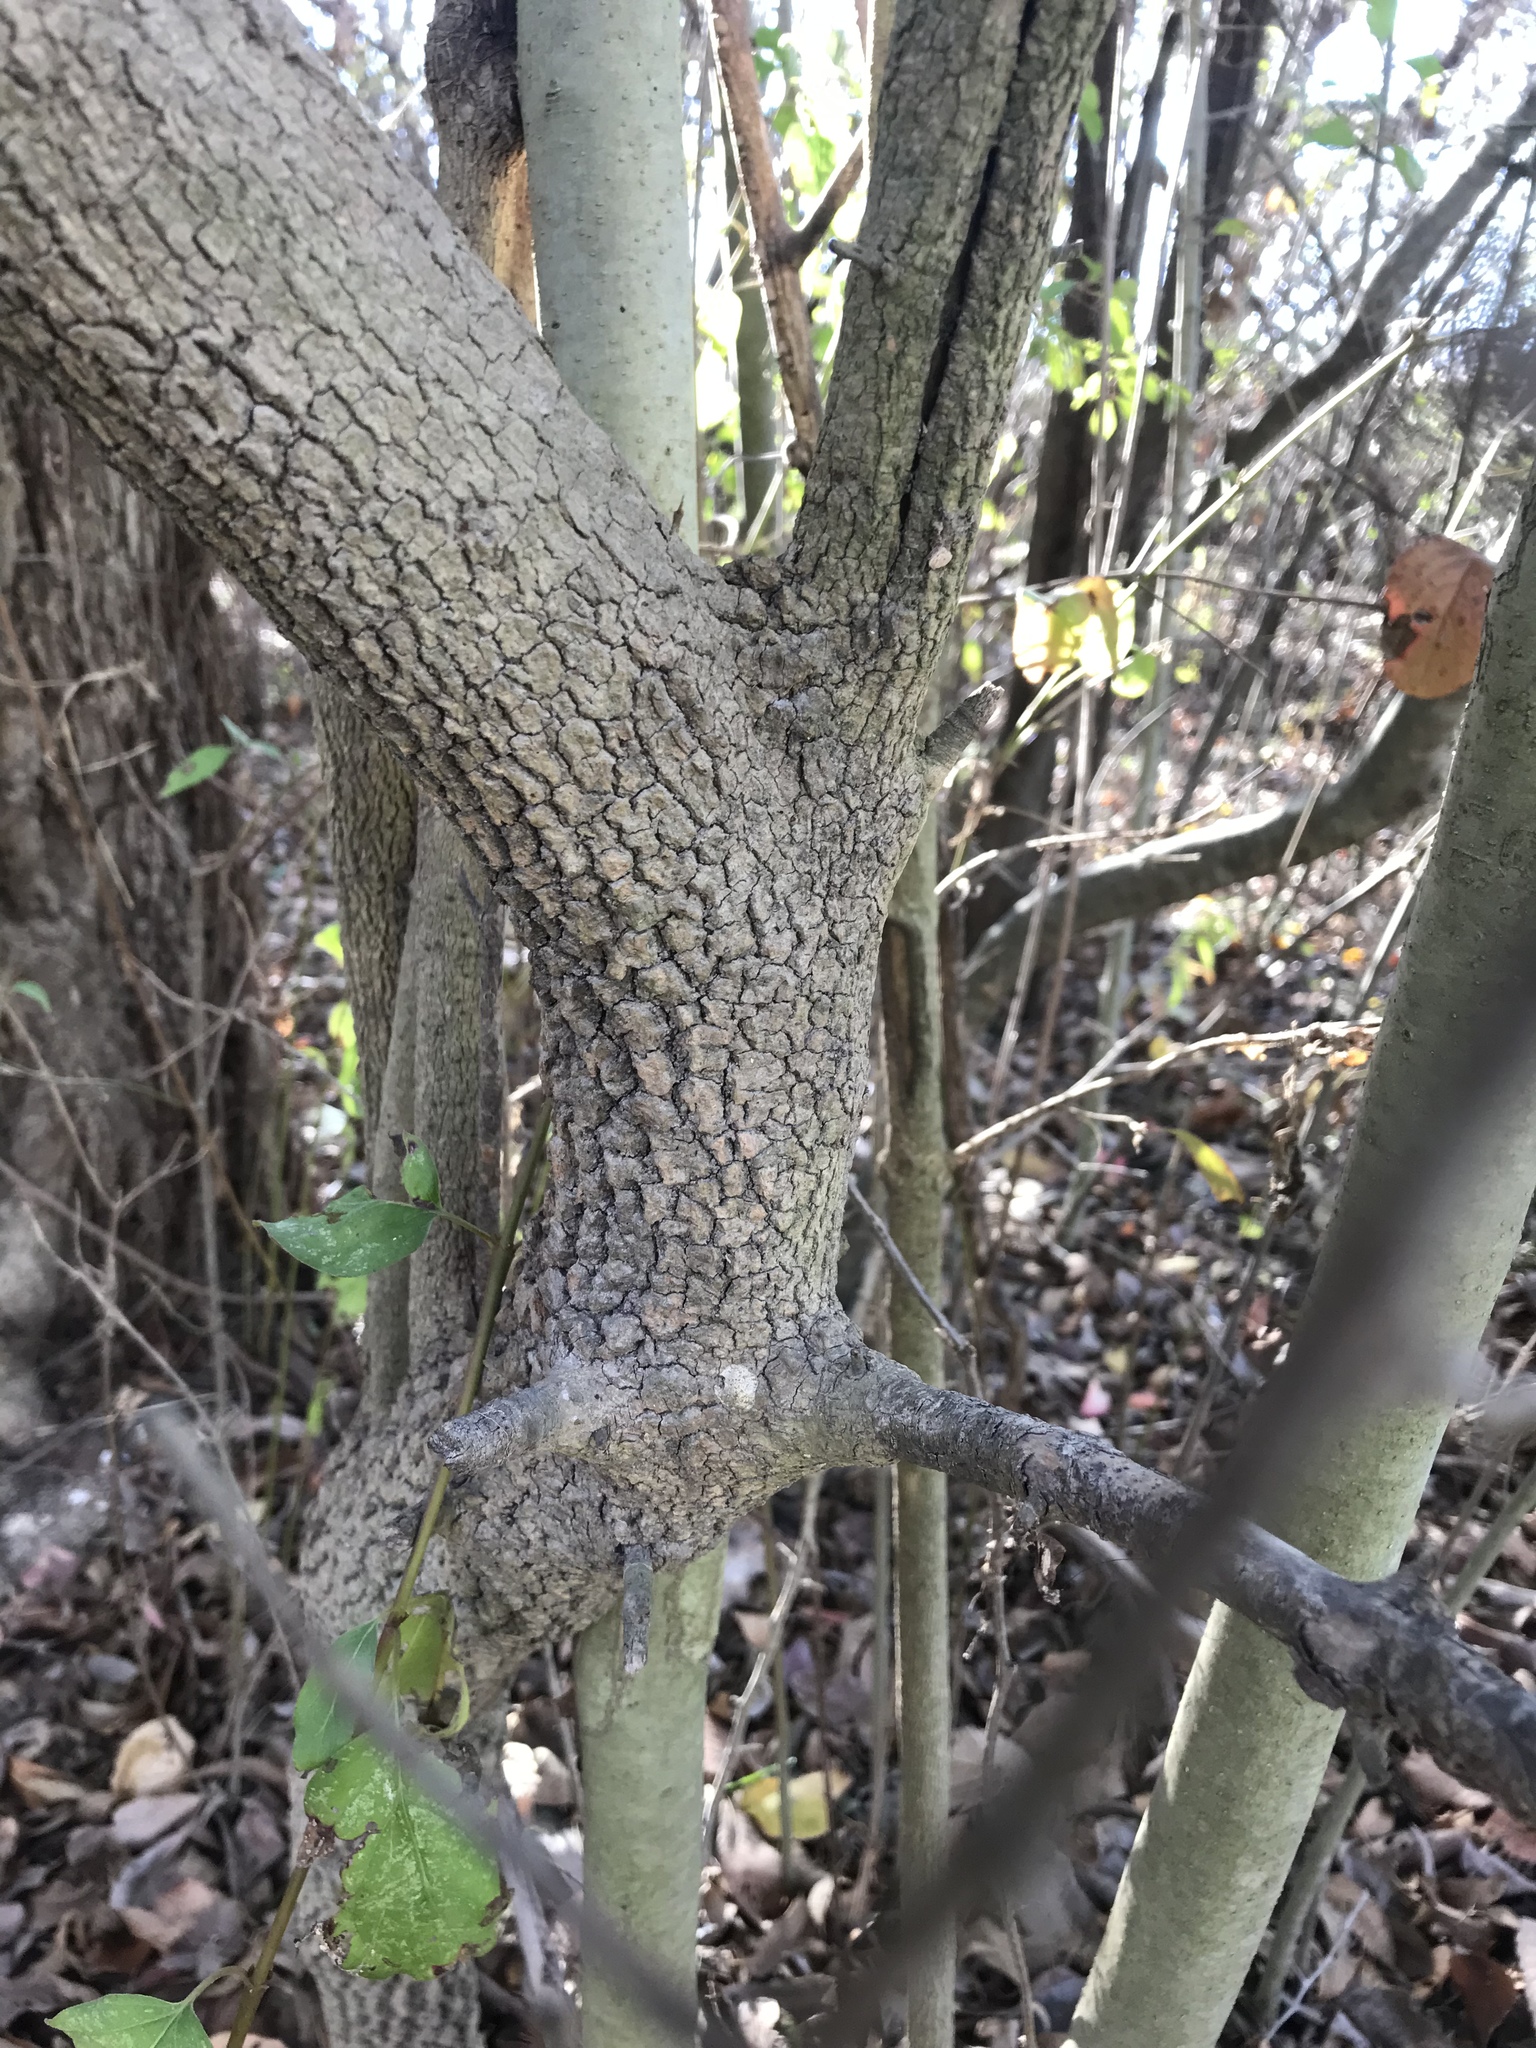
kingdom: Plantae
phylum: Tracheophyta
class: Magnoliopsida
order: Dipsacales
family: Viburnaceae
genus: Viburnum
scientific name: Viburnum rufidulum
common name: Blue haw
